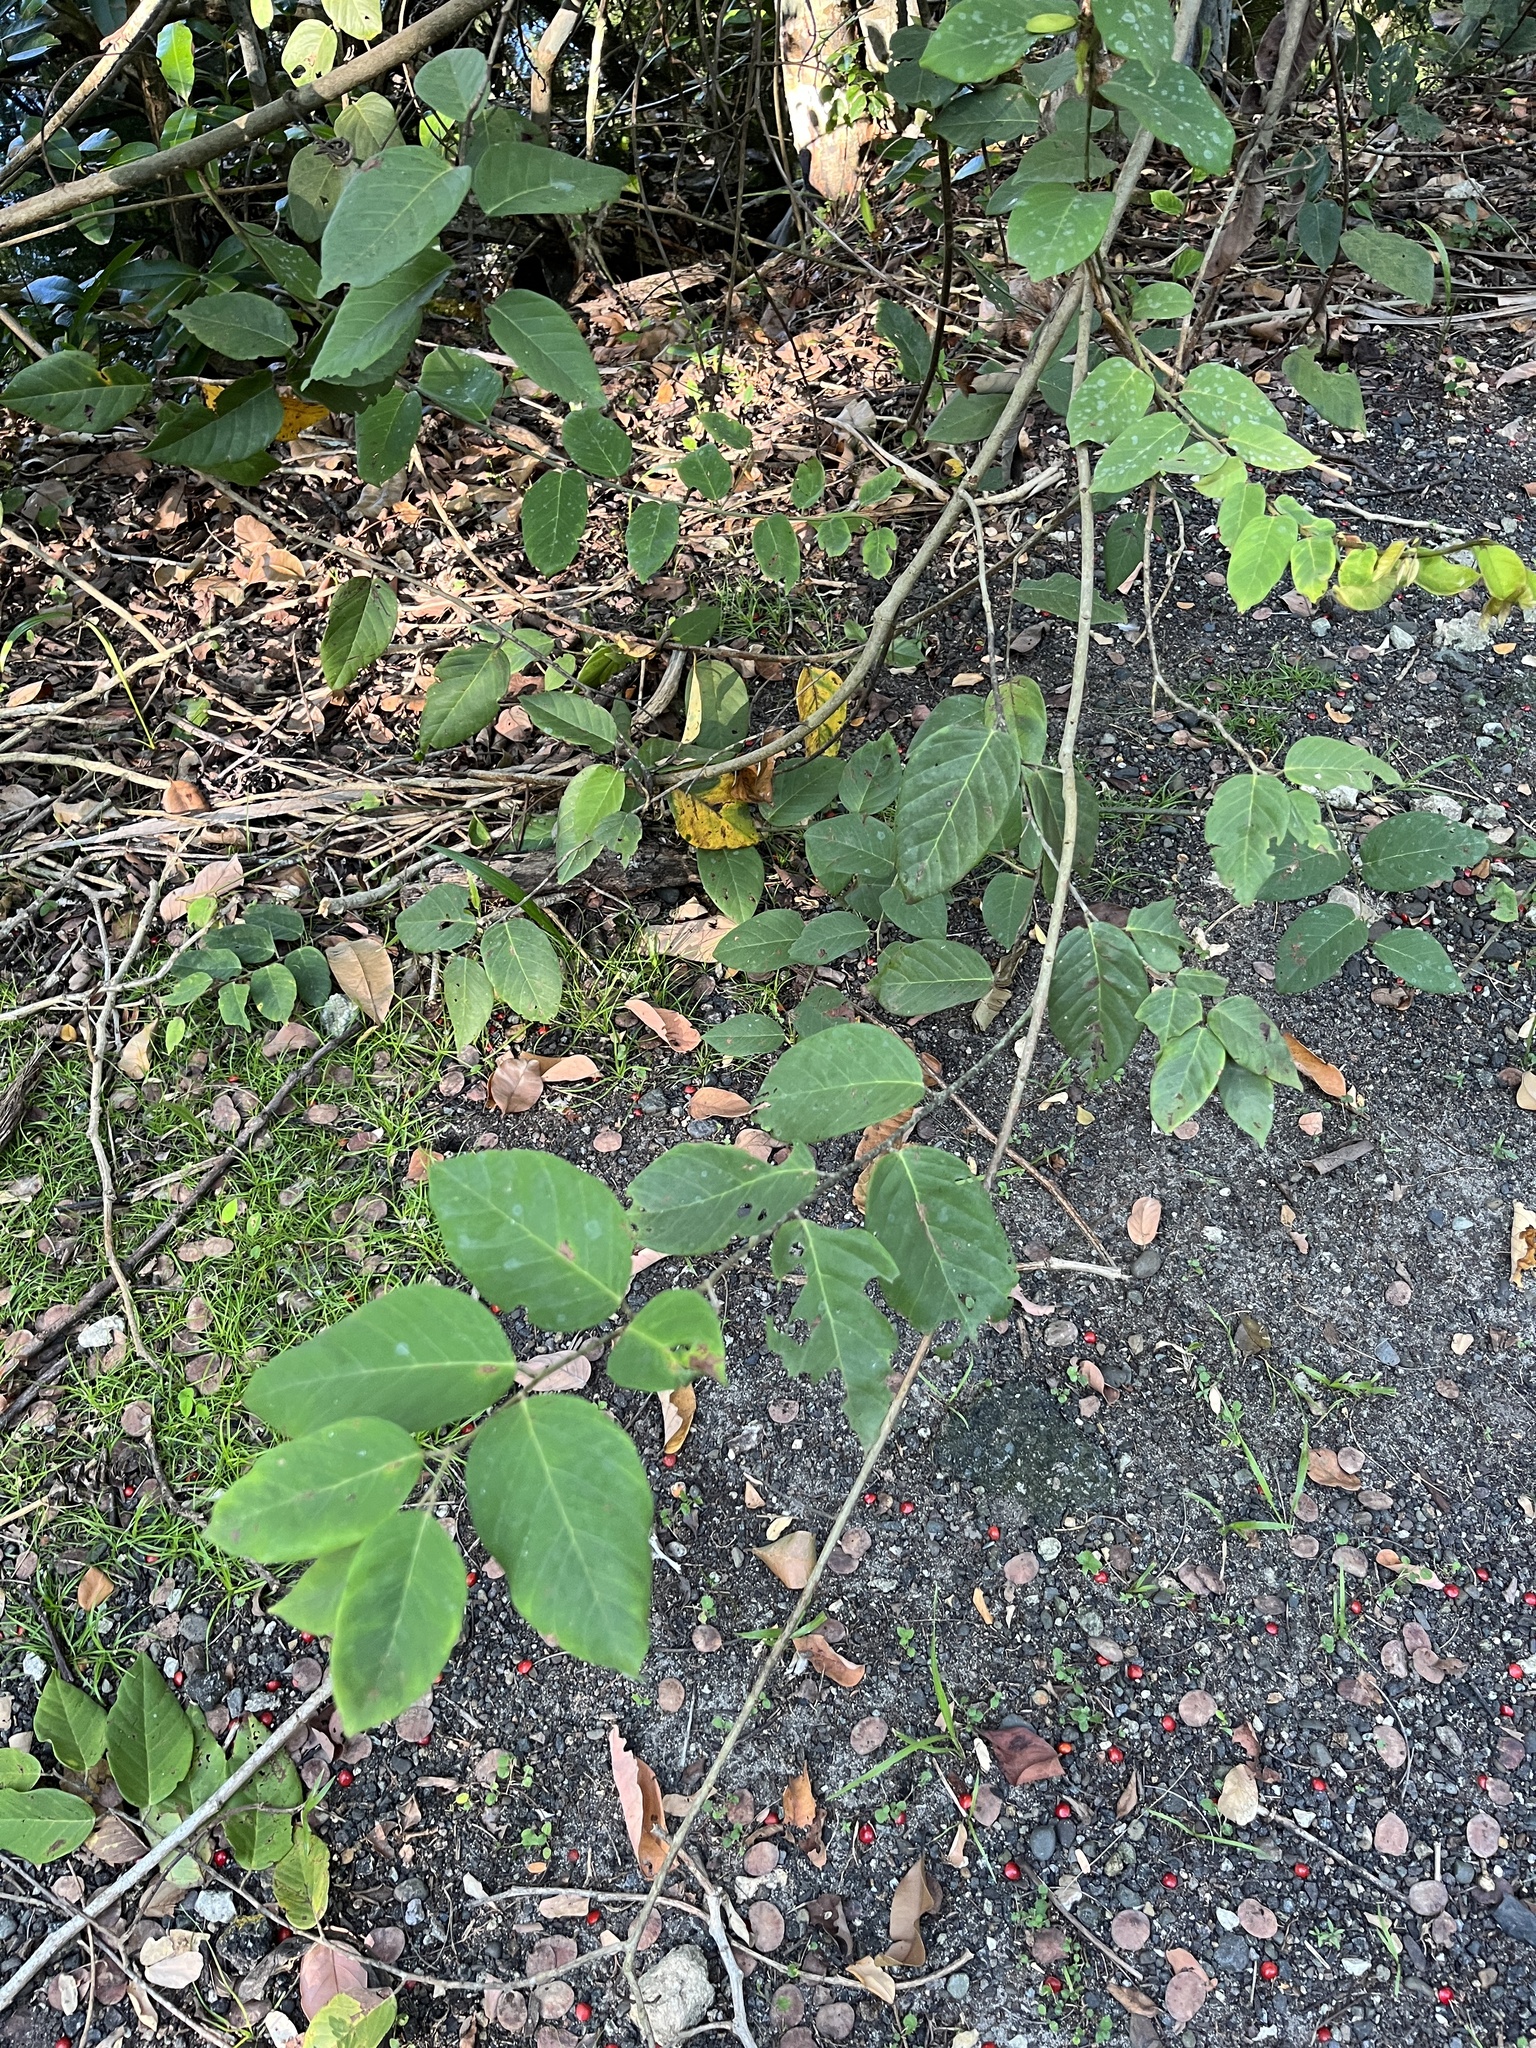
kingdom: Plantae
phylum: Tracheophyta
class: Magnoliopsida
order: Fabales
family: Fabaceae
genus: Dalbergia
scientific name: Dalbergia ecastaphyllum
